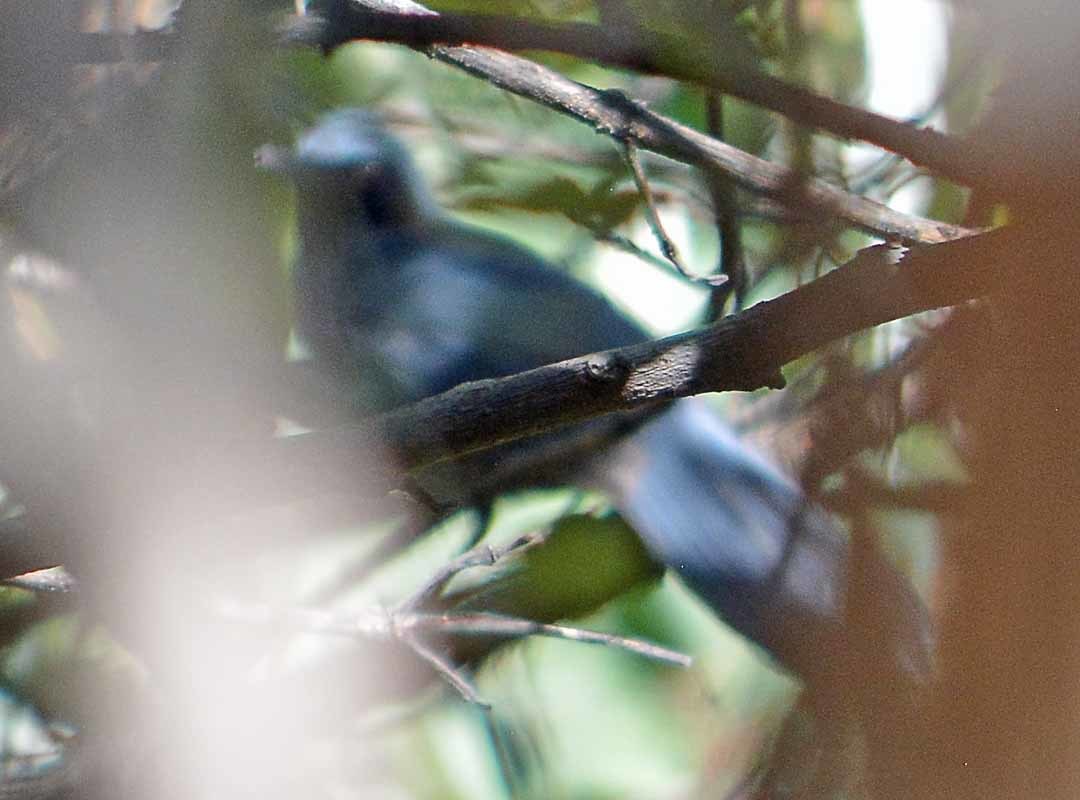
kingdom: Animalia
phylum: Chordata
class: Aves
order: Passeriformes
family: Mimidae
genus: Melanotis
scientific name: Melanotis caerulescens
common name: Blue mockingbird
